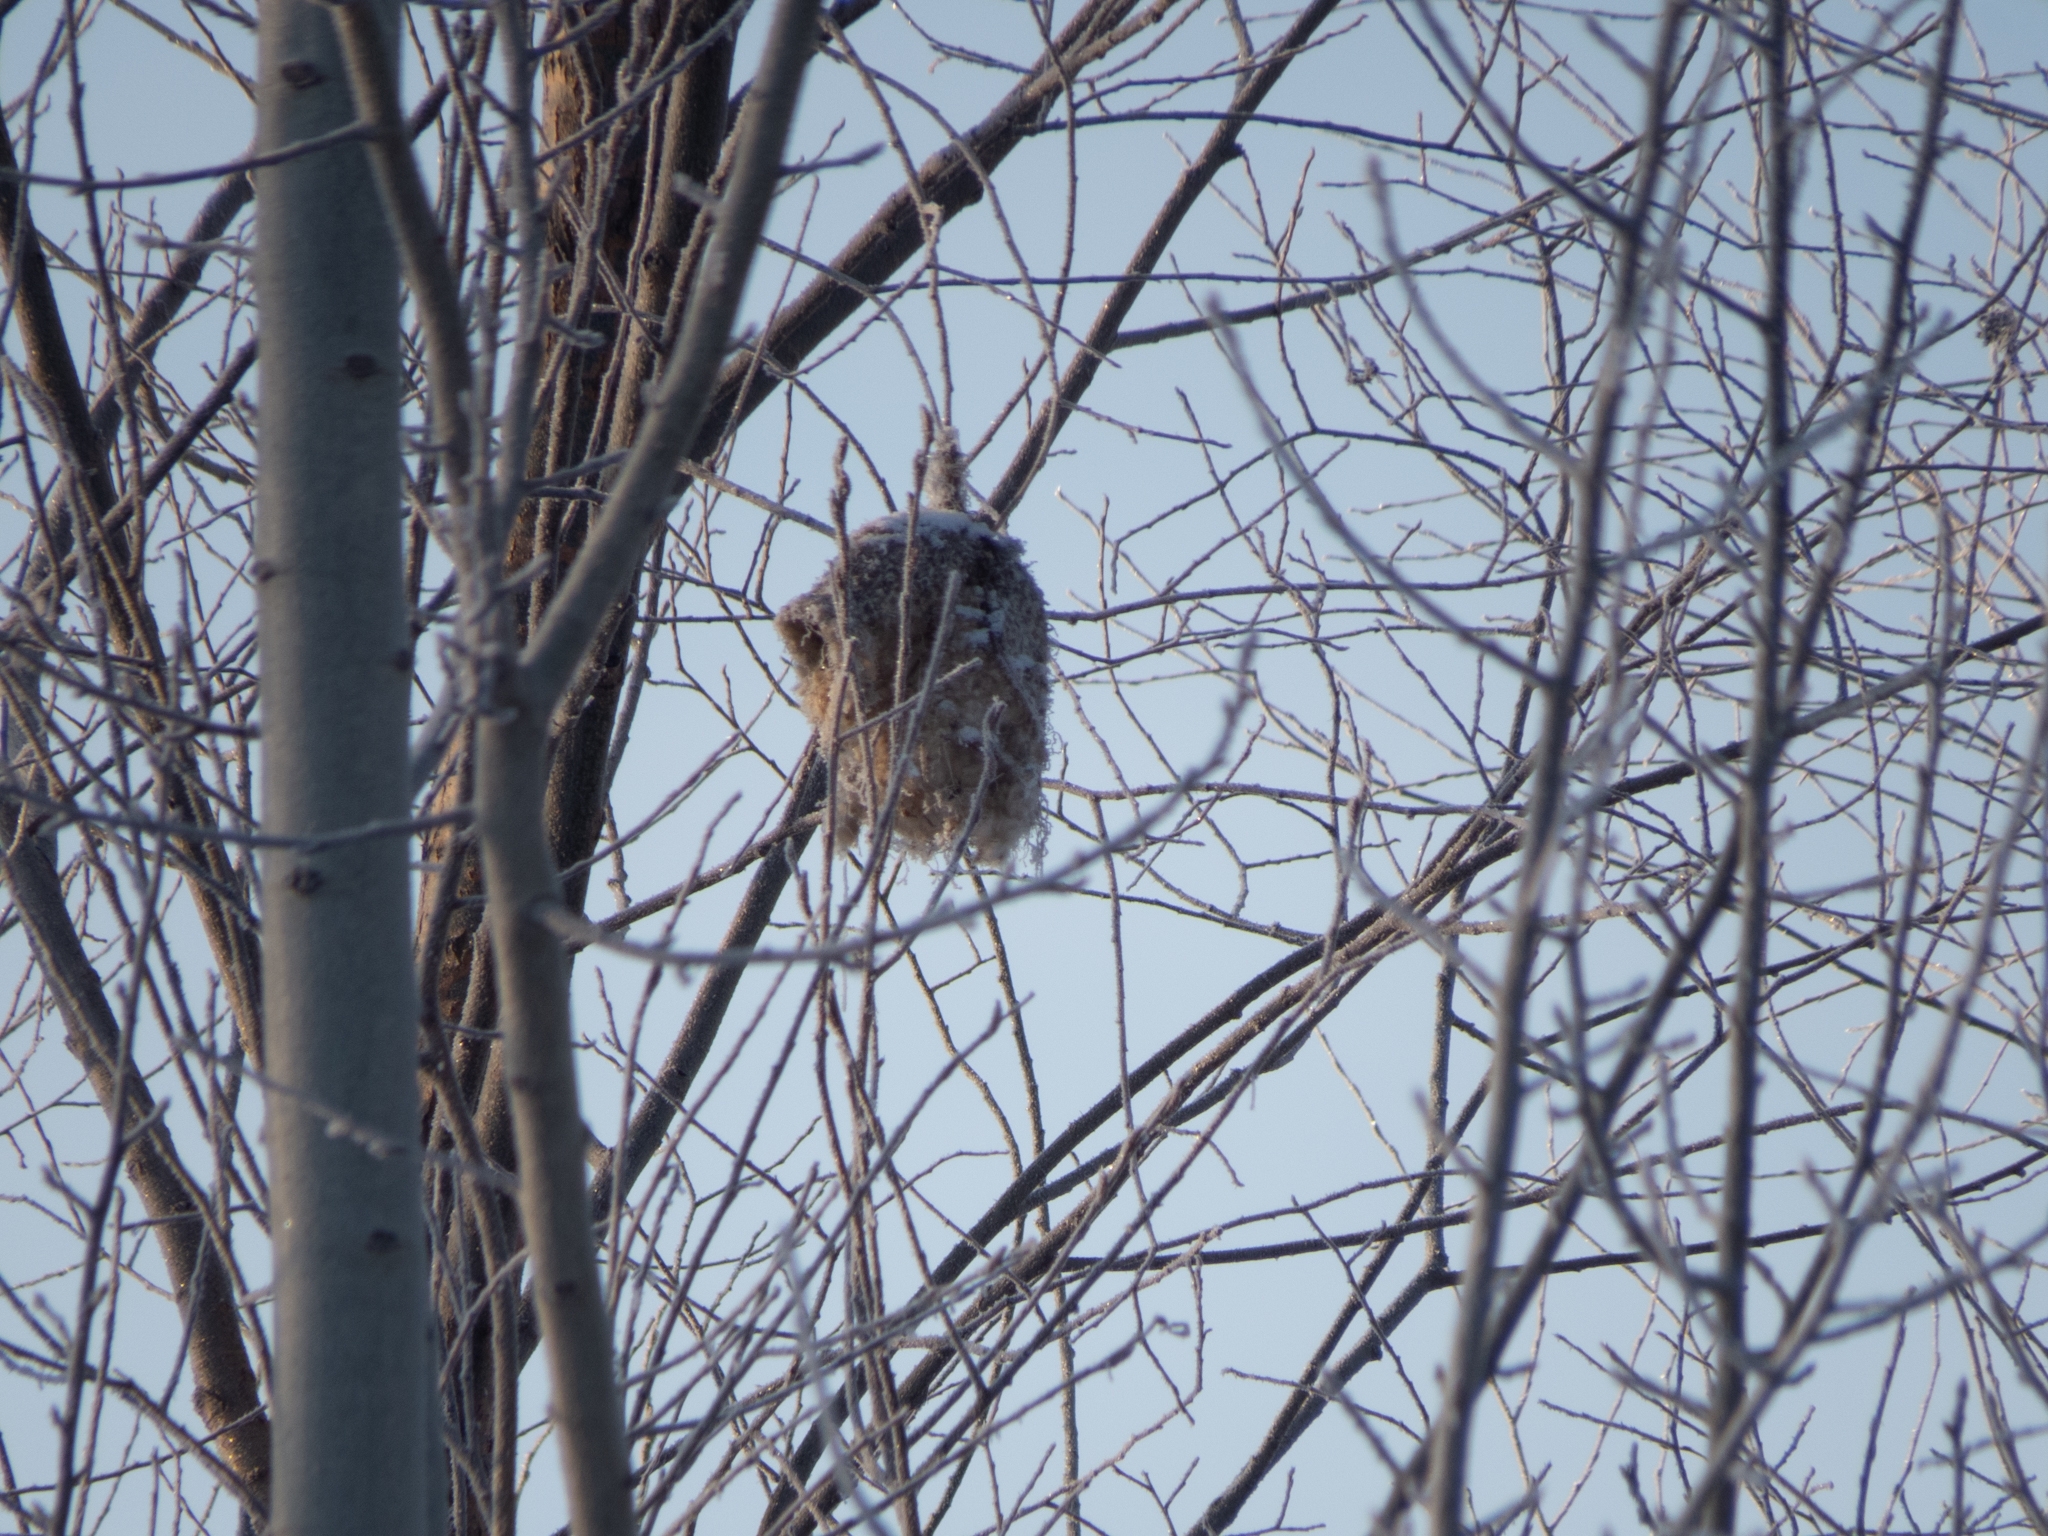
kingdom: Animalia
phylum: Chordata
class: Aves
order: Passeriformes
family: Remizidae
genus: Remiz
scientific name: Remiz pendulinus
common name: Eurasian penduline tit
